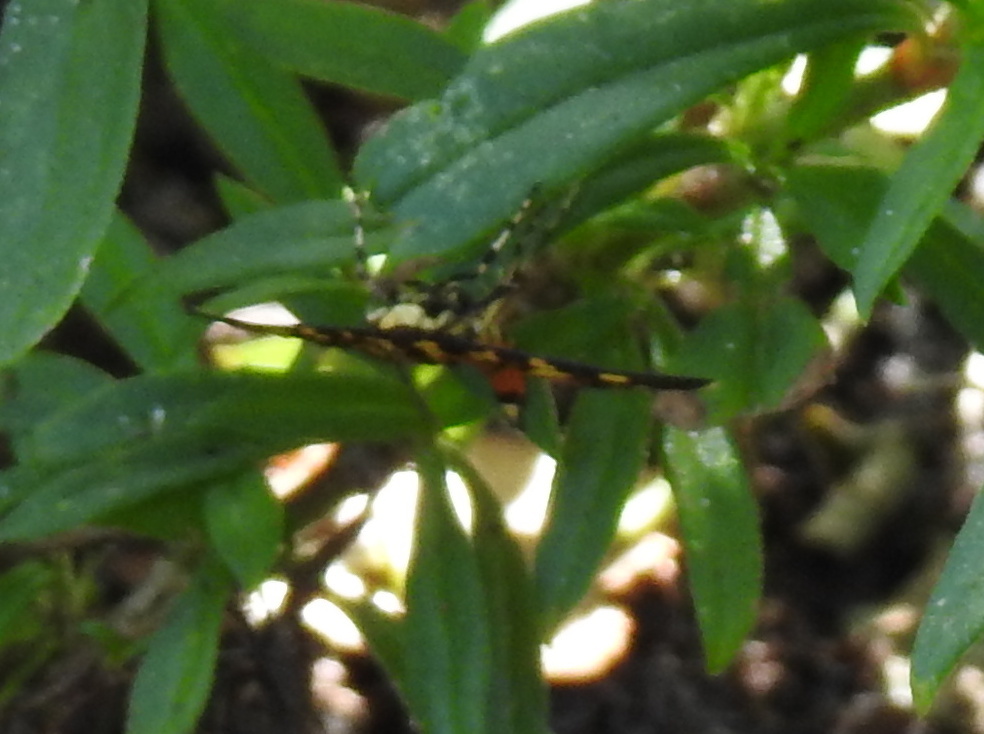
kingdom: Animalia
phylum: Arthropoda
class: Insecta
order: Lepidoptera
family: Crambidae
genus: Syngamia
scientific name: Syngamia florella
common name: Orange-spotted flower moth
